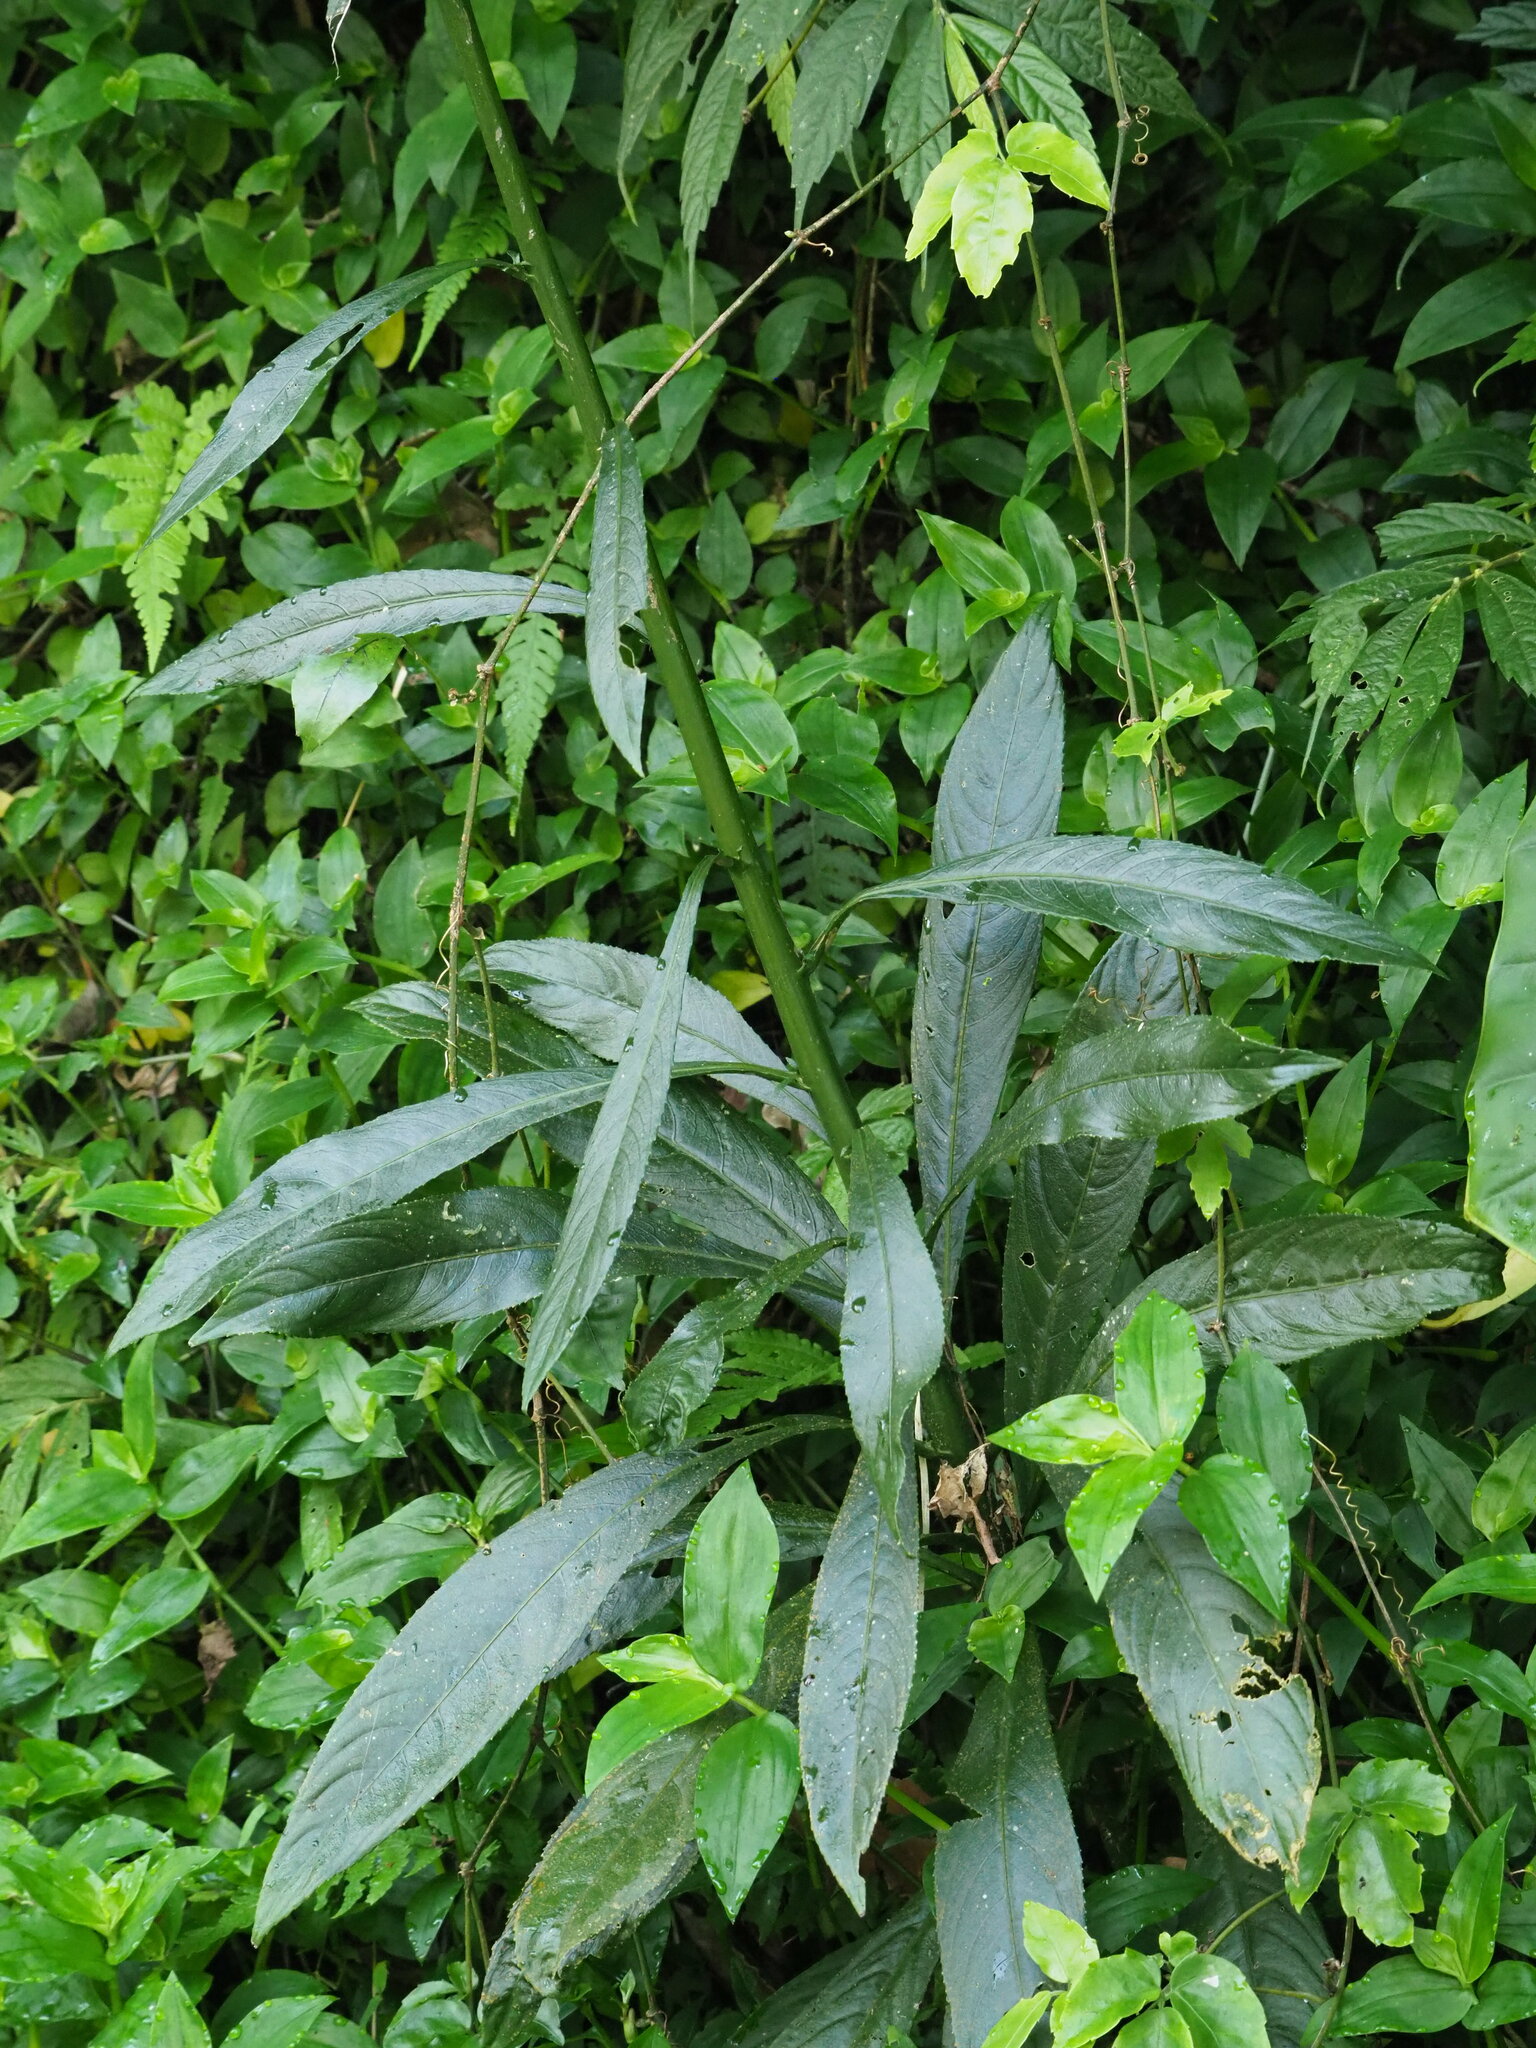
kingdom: Plantae
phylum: Tracheophyta
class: Magnoliopsida
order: Asterales
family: Asteraceae
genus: Blumea
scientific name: Blumea lanceolaria
